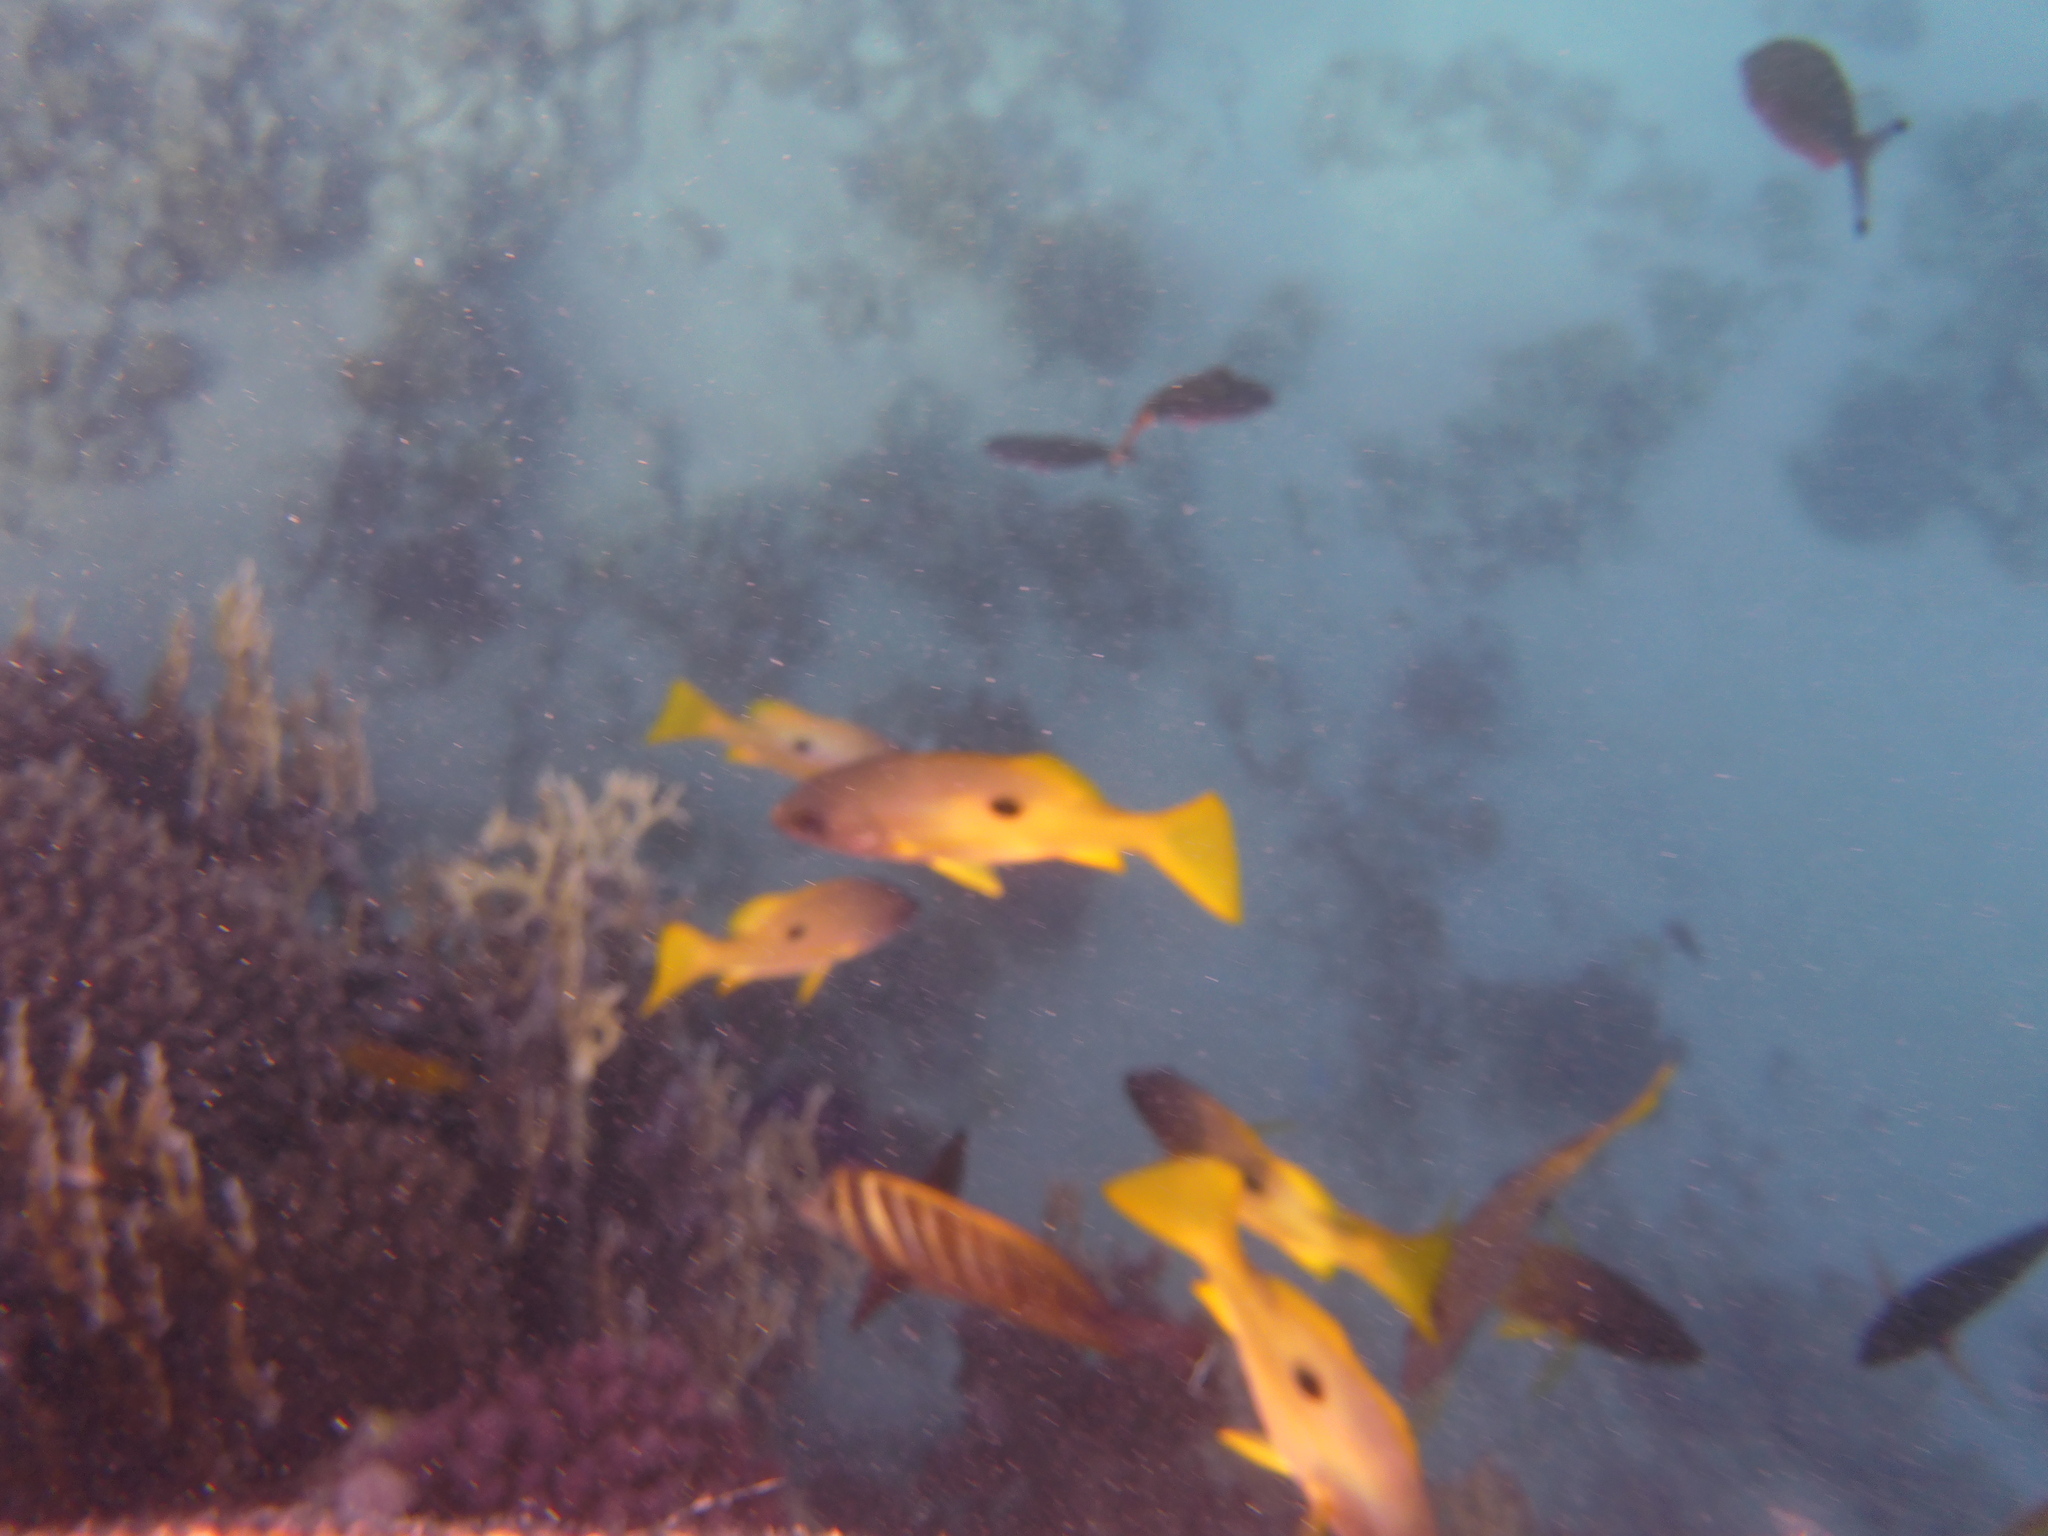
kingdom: Animalia
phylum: Chordata
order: Perciformes
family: Lutjanidae
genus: Lutjanus
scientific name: Lutjanus fulviflamma
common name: Blackspot snapper
